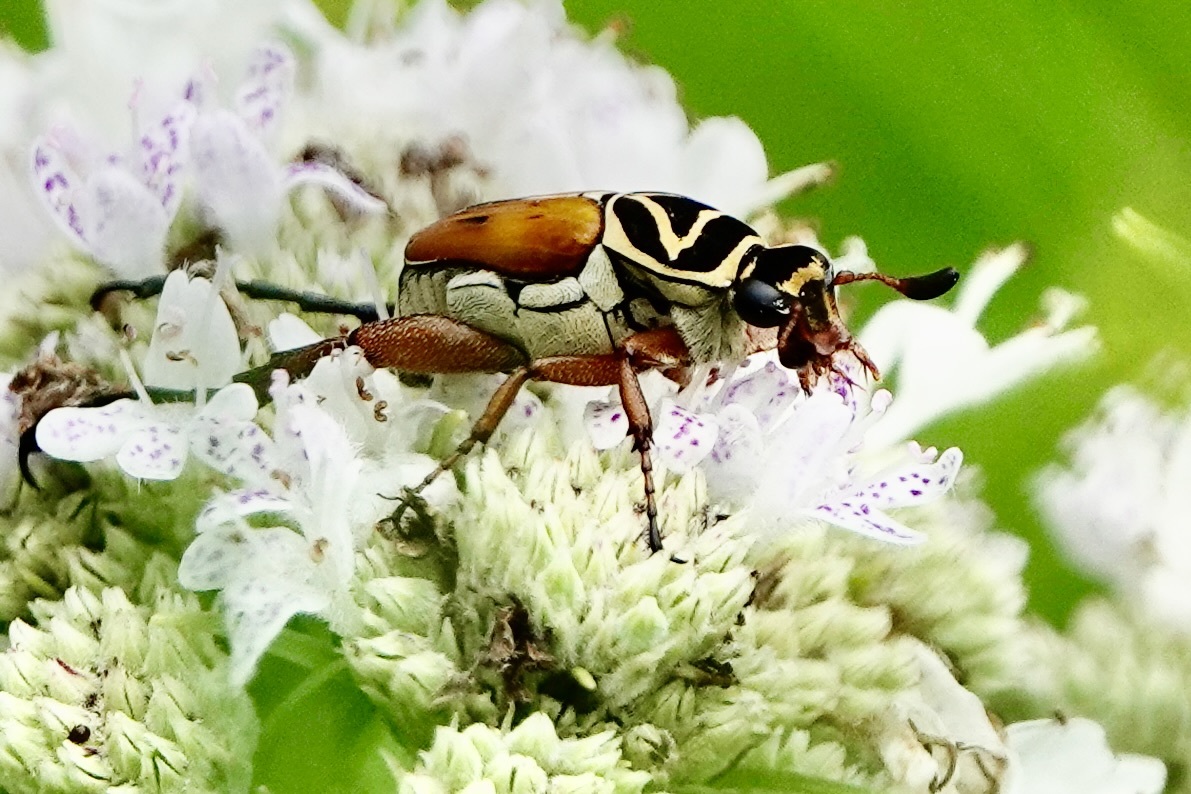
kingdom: Animalia
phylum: Arthropoda
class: Insecta
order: Coleoptera
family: Scarabaeidae
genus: Trigonopeltastes
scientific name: Trigonopeltastes delta
